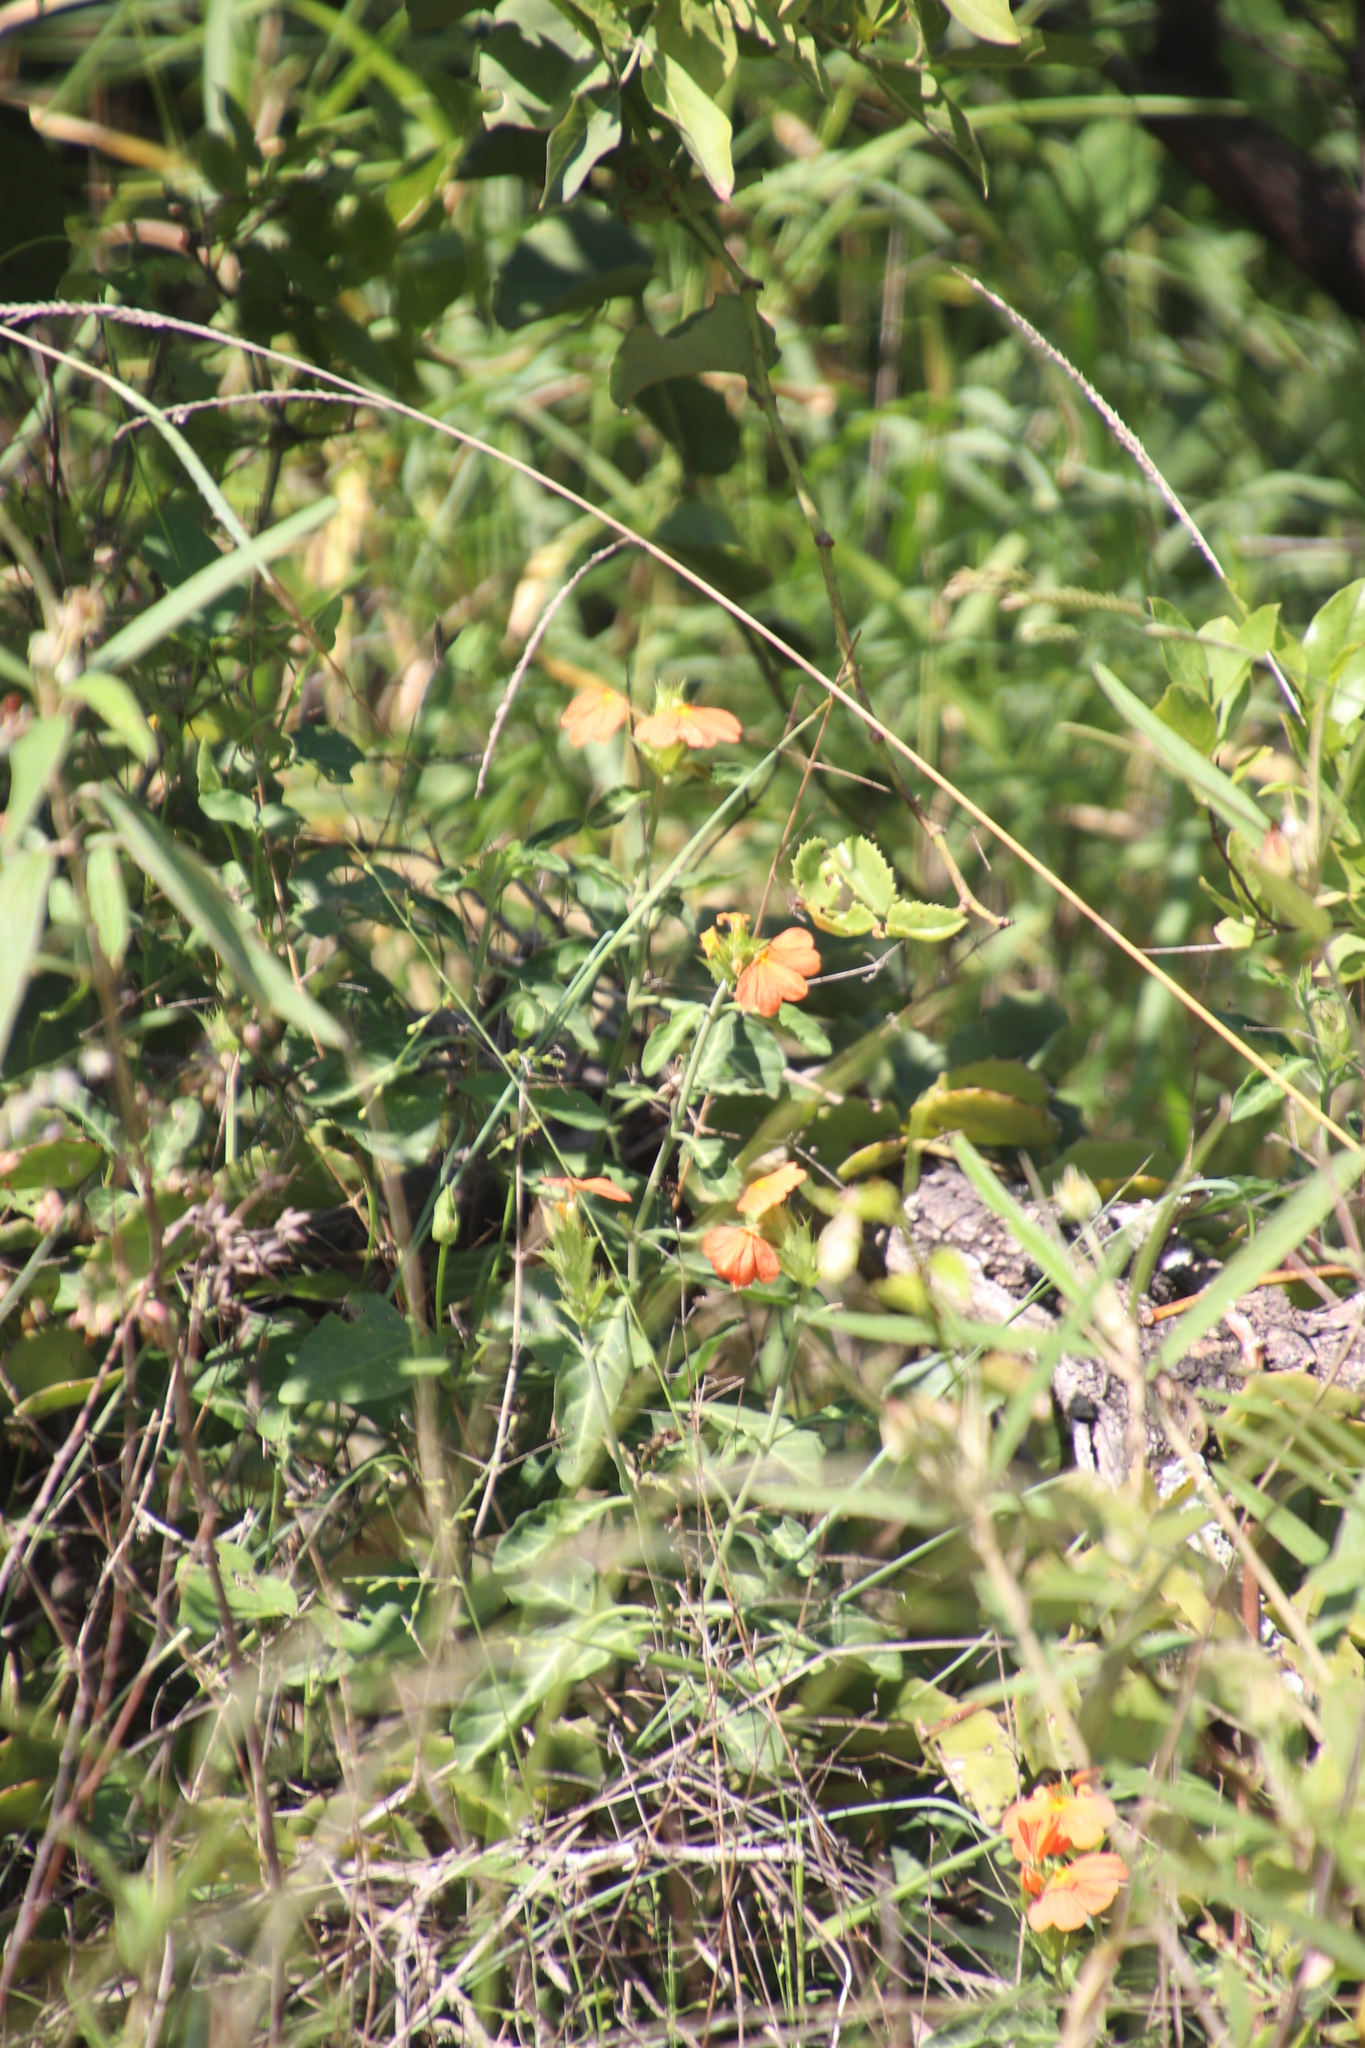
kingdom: Plantae
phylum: Tracheophyta
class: Magnoliopsida
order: Lamiales
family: Acanthaceae
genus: Crossandra
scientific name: Crossandra fruticulosa
